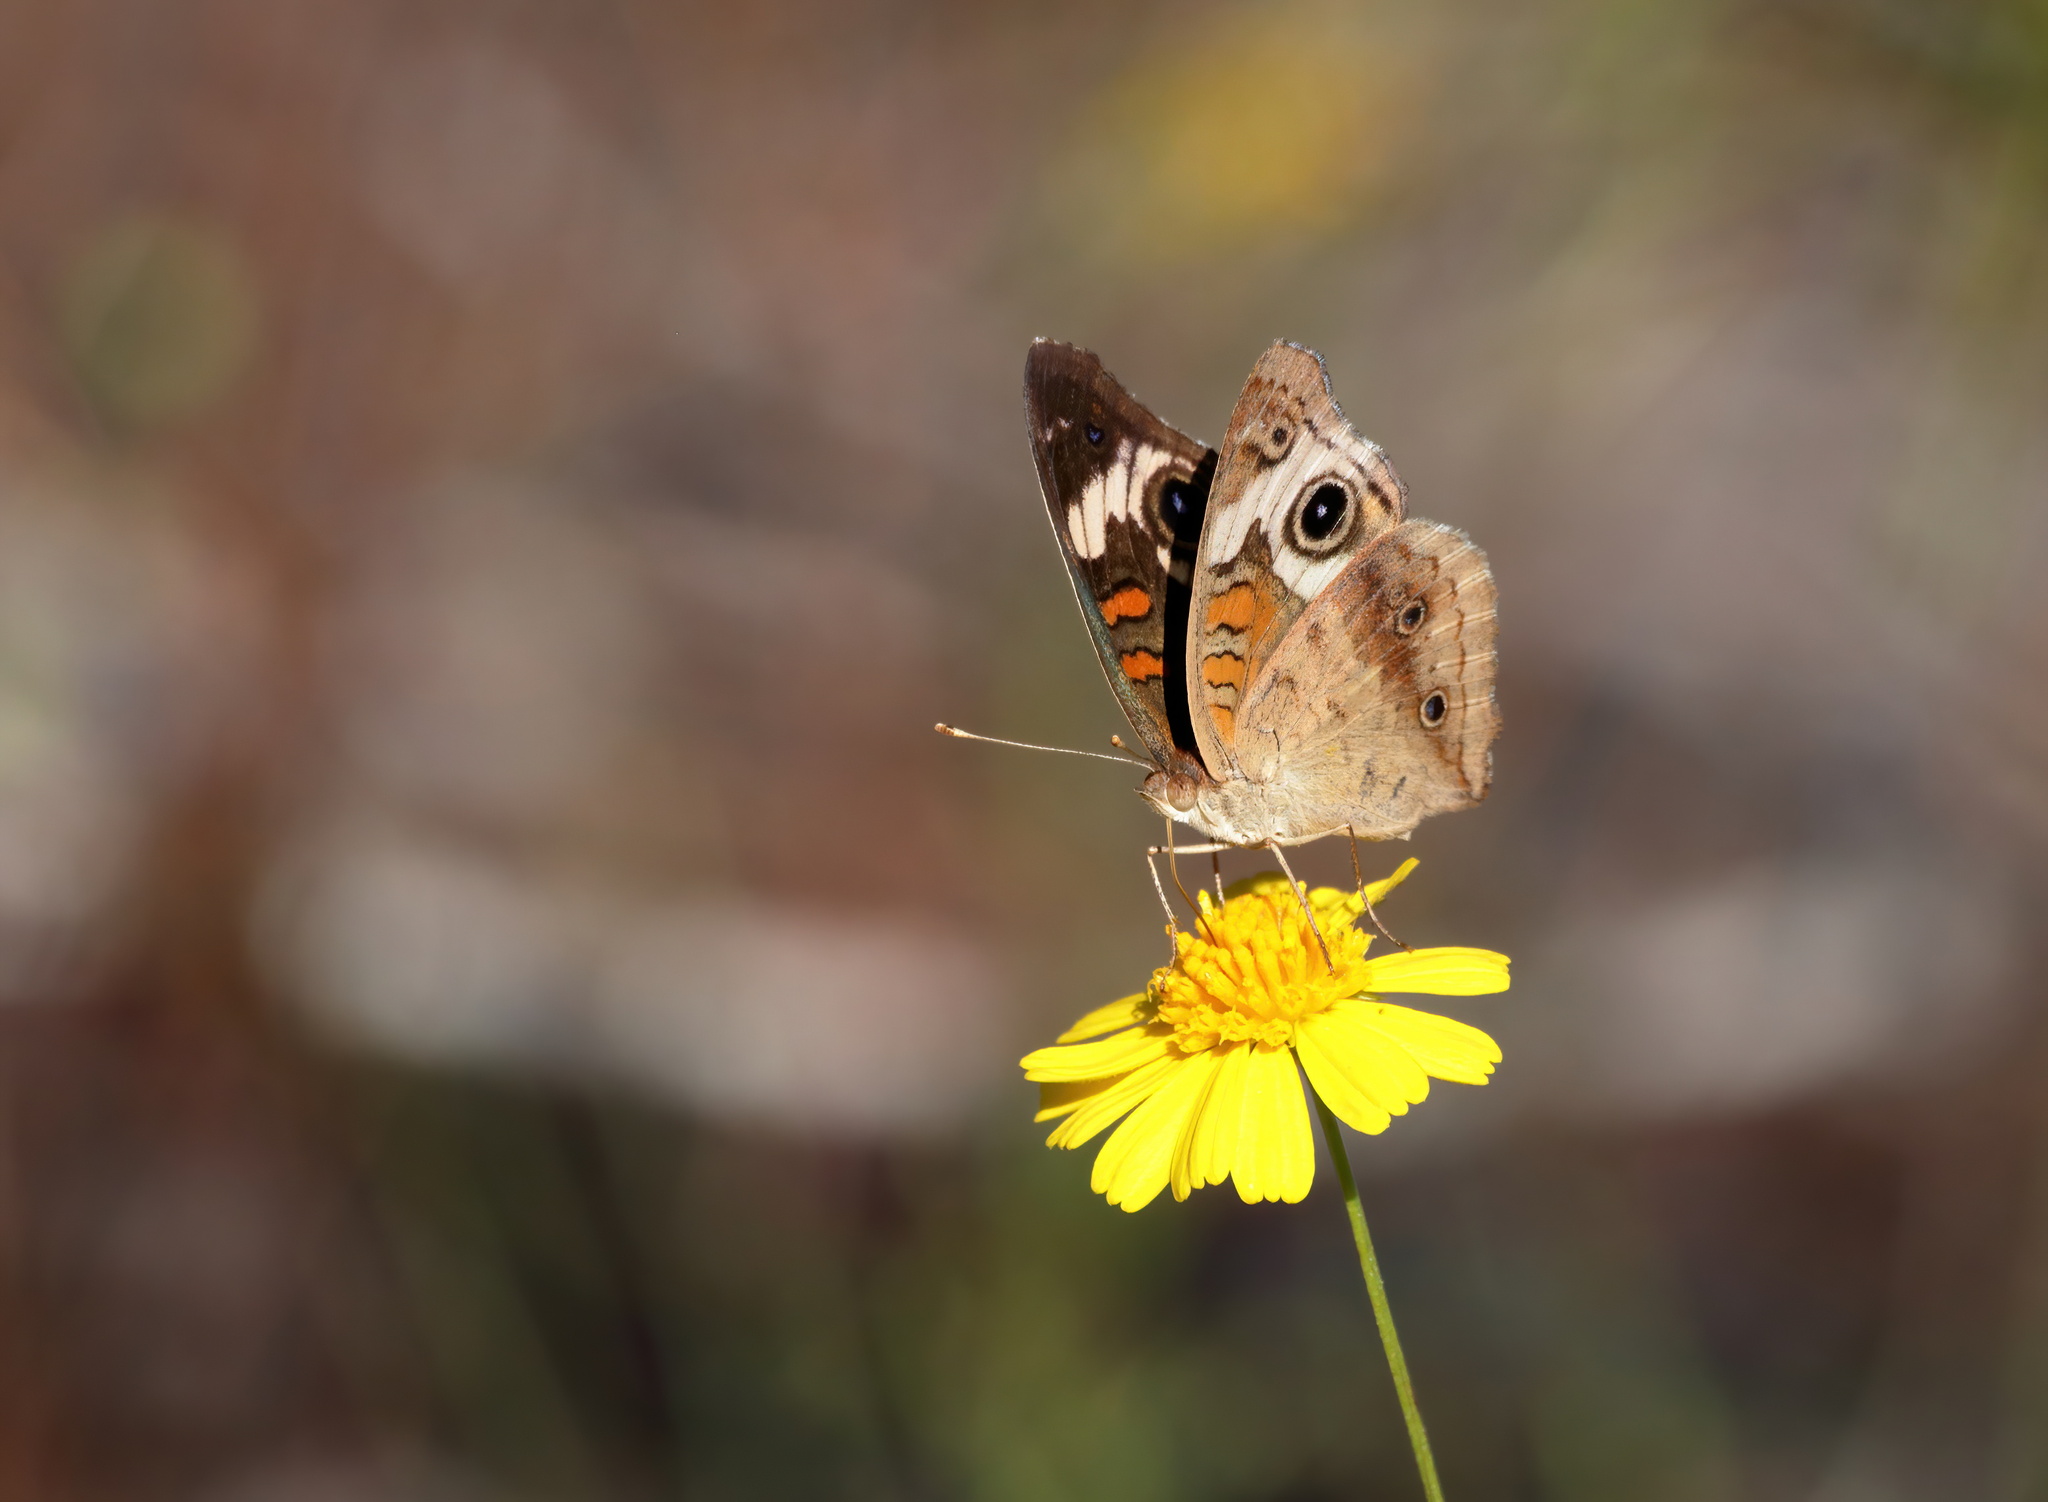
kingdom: Animalia
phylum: Arthropoda
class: Insecta
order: Lepidoptera
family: Nymphalidae
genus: Junonia
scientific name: Junonia coenia
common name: Common buckeye
